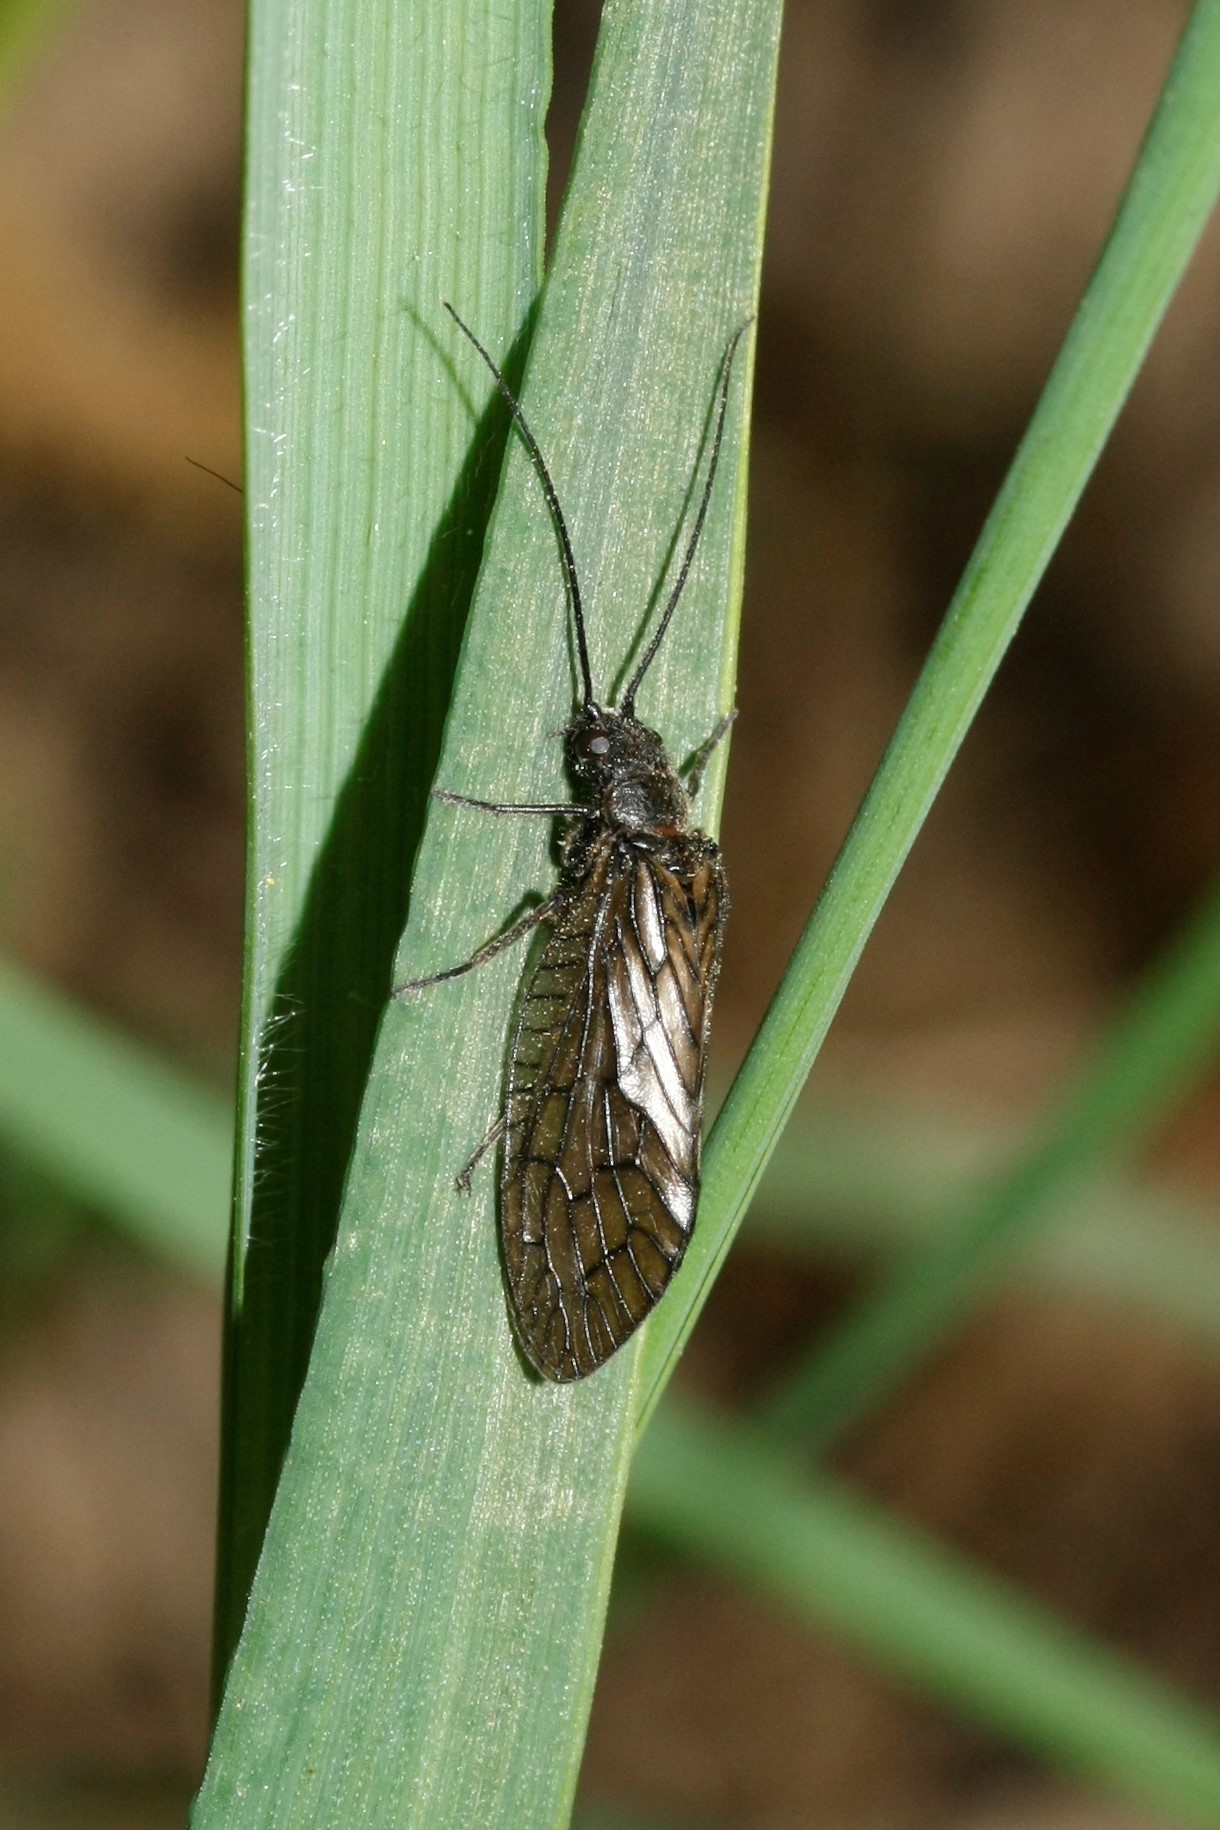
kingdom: Animalia
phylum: Arthropoda
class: Insecta
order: Megaloptera
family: Sialidae
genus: Sialis
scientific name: Sialis
